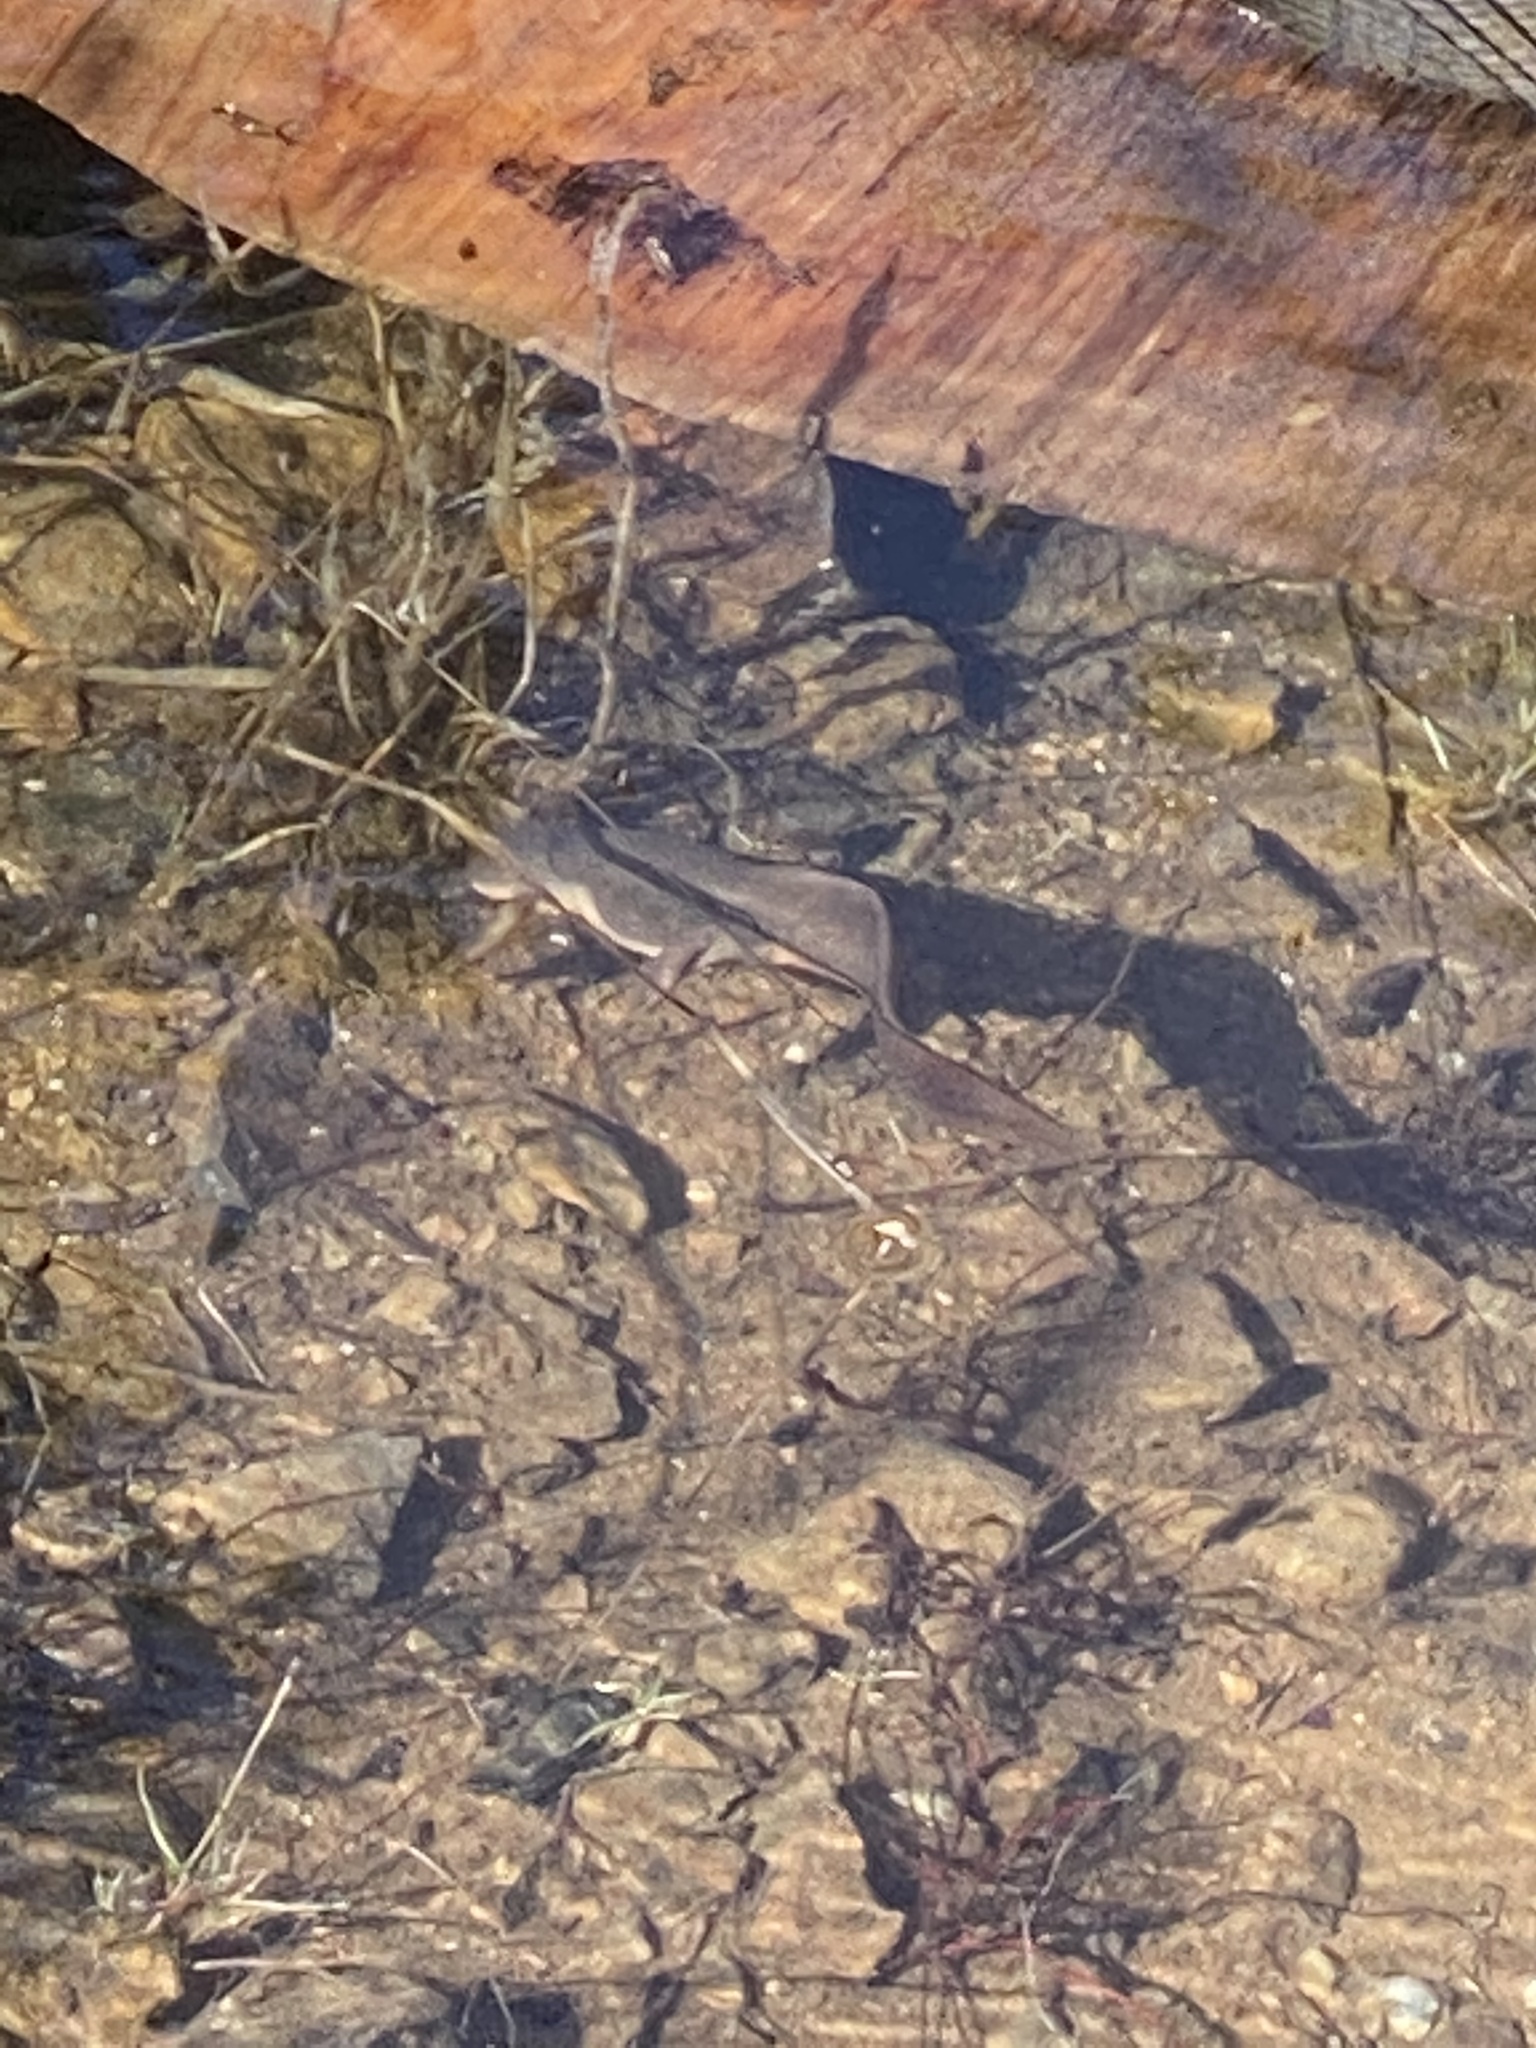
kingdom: Animalia
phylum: Chordata
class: Amphibia
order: Caudata
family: Salamandridae
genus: Taricha
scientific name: Taricha granulosa
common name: Roughskin newt
